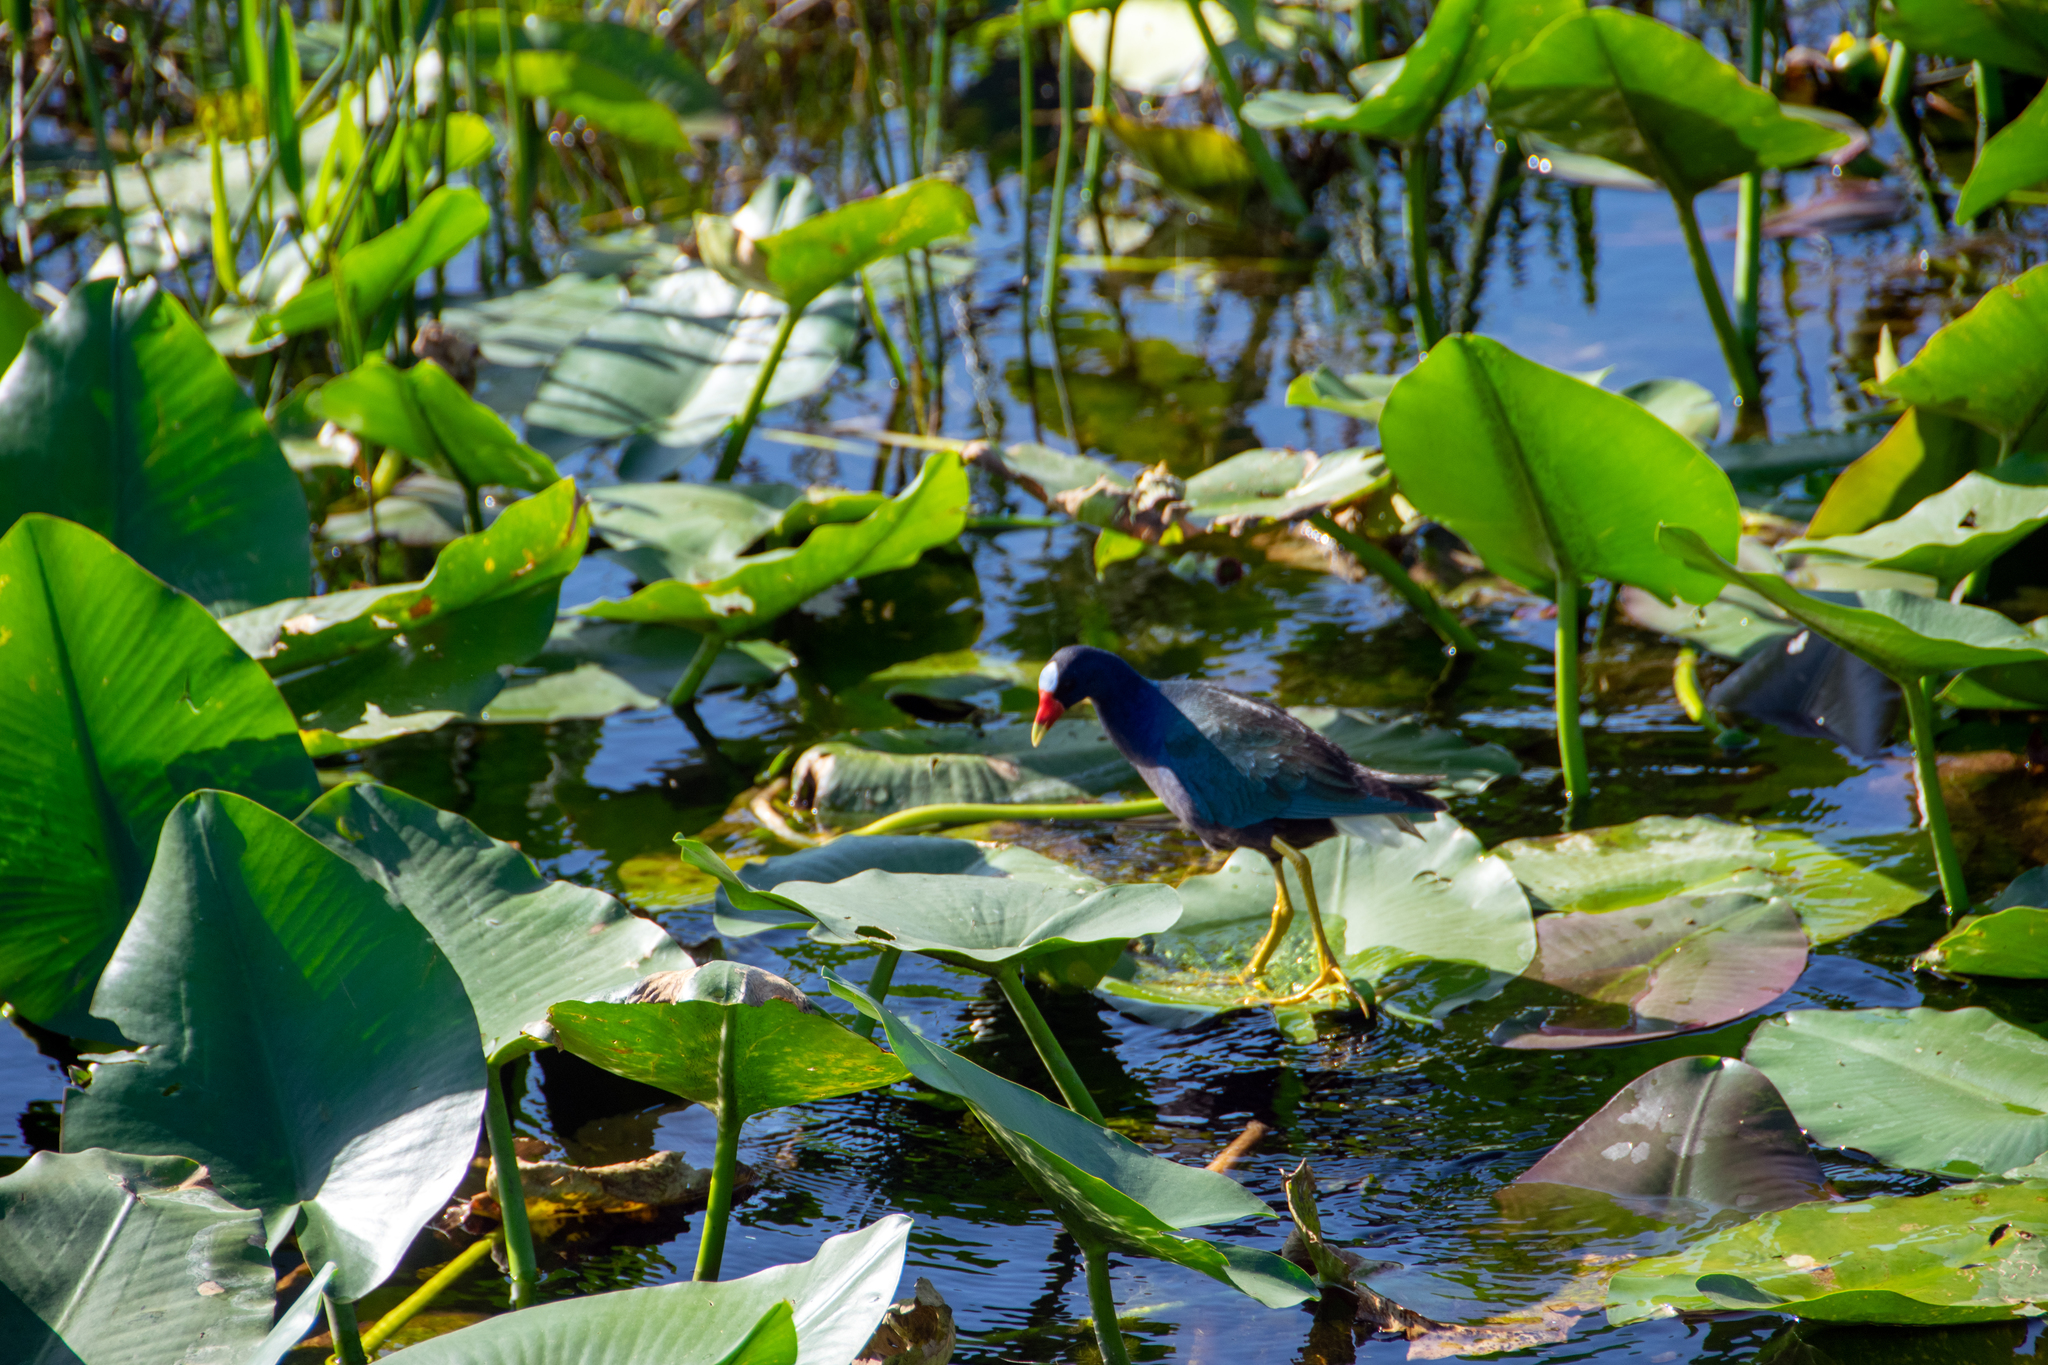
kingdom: Animalia
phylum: Chordata
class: Aves
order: Gruiformes
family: Rallidae
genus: Porphyrio
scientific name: Porphyrio martinica
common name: Purple gallinule
